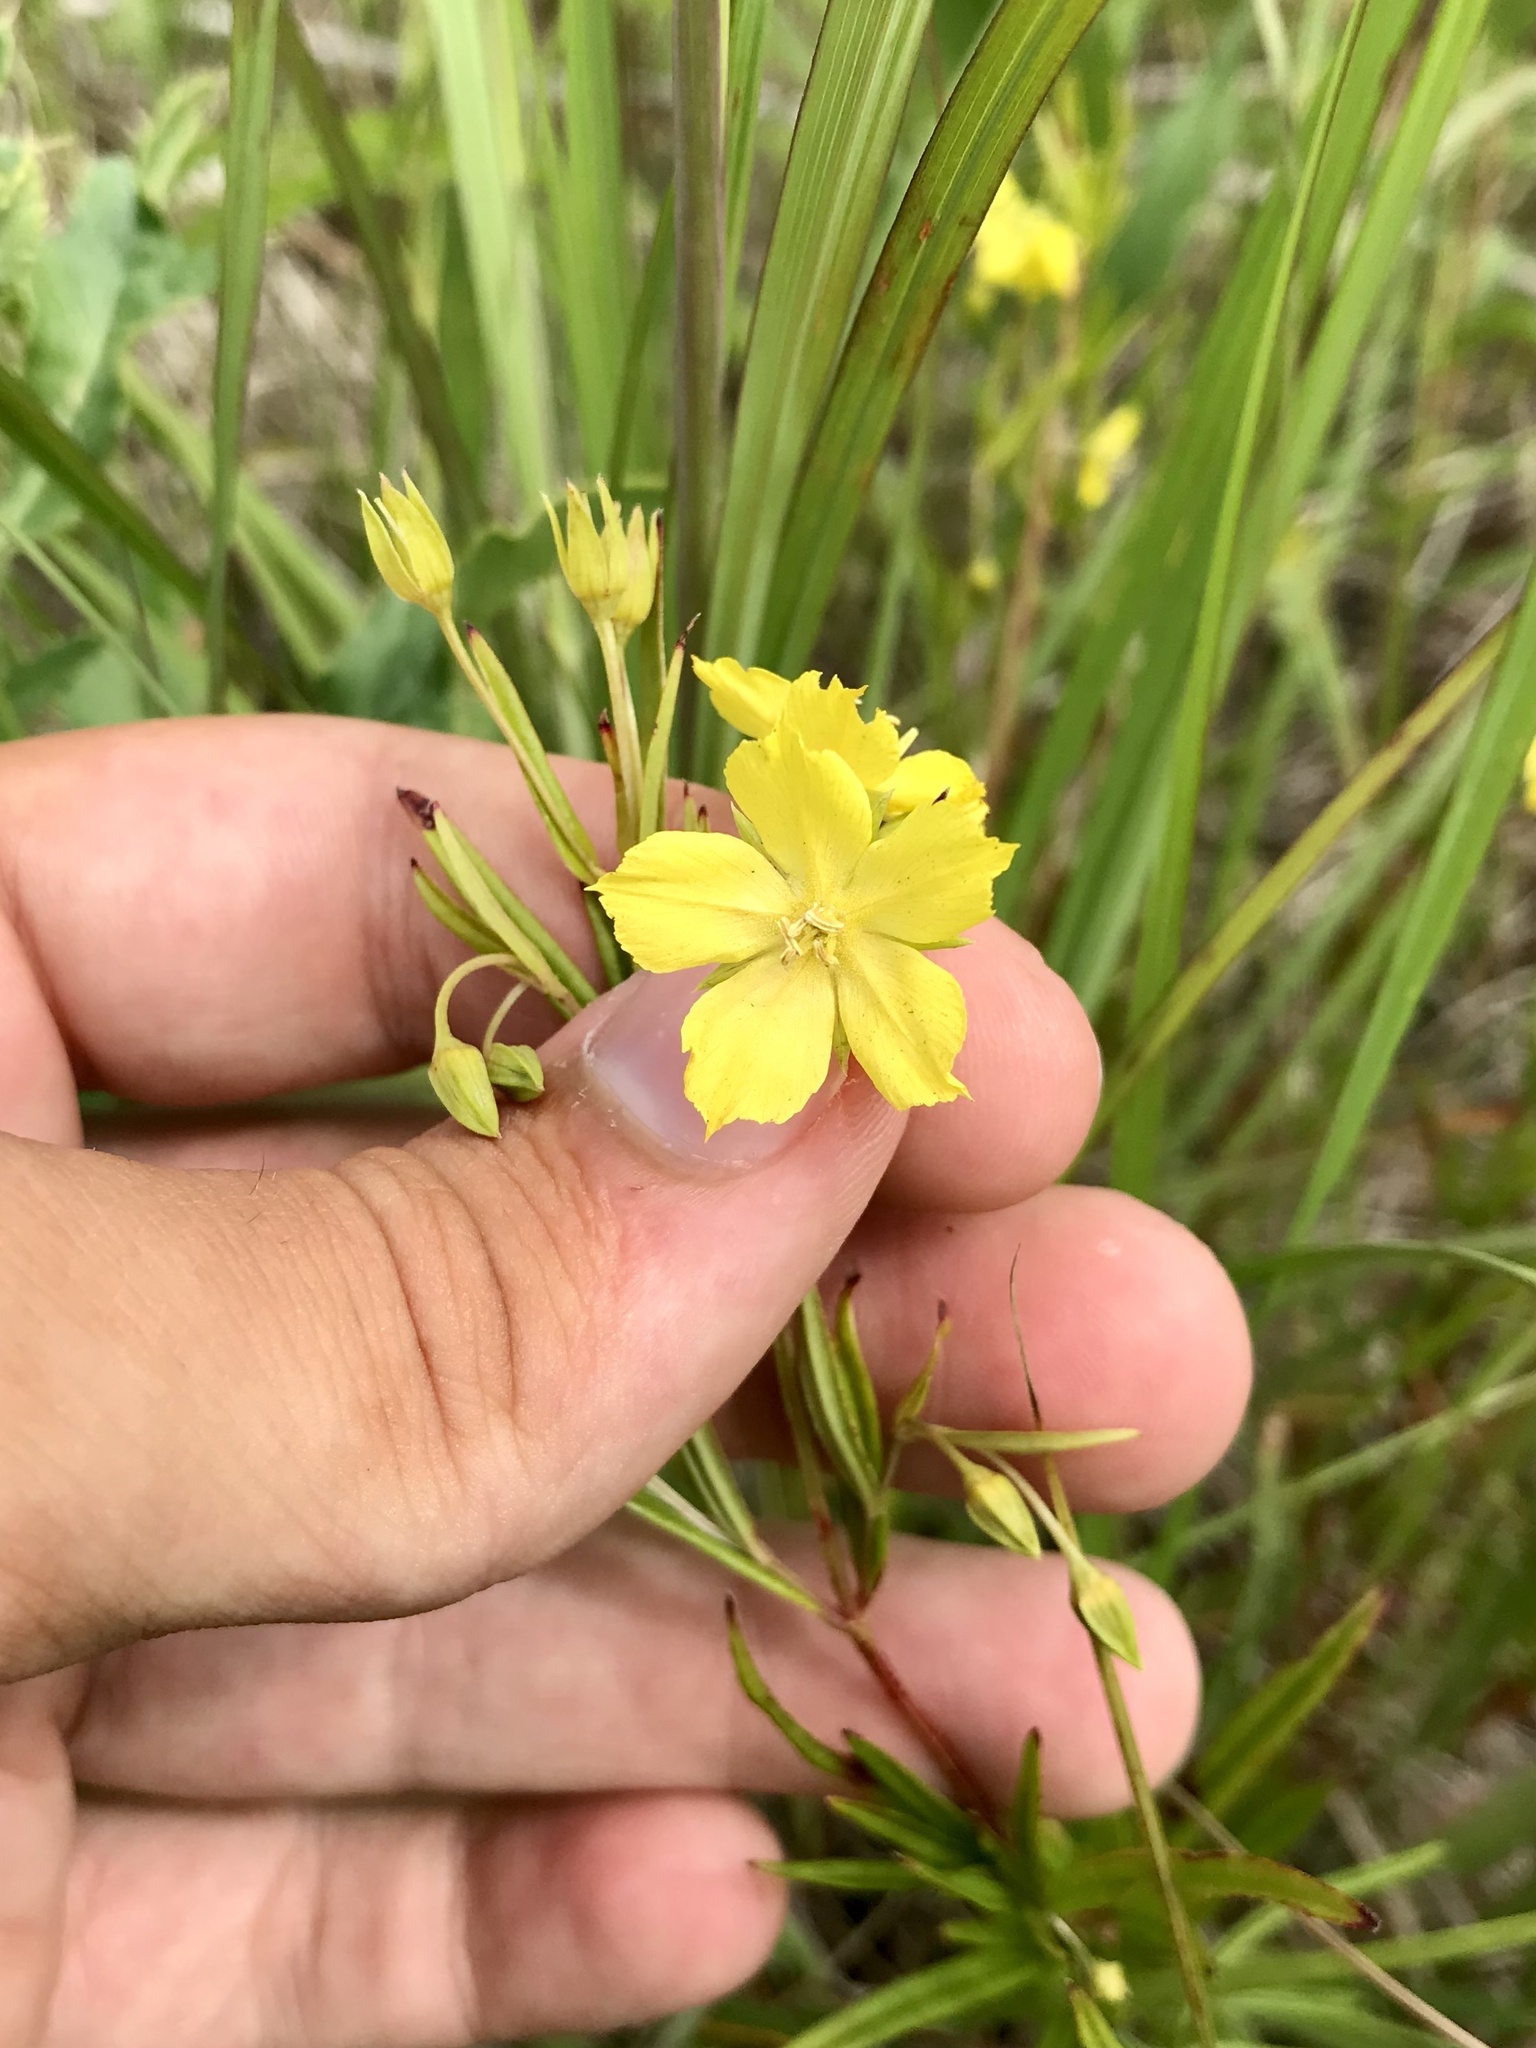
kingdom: Plantae
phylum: Tracheophyta
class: Magnoliopsida
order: Ericales
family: Primulaceae
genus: Lysimachia
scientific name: Lysimachia quadriflora
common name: Four-flowered loosestrife
